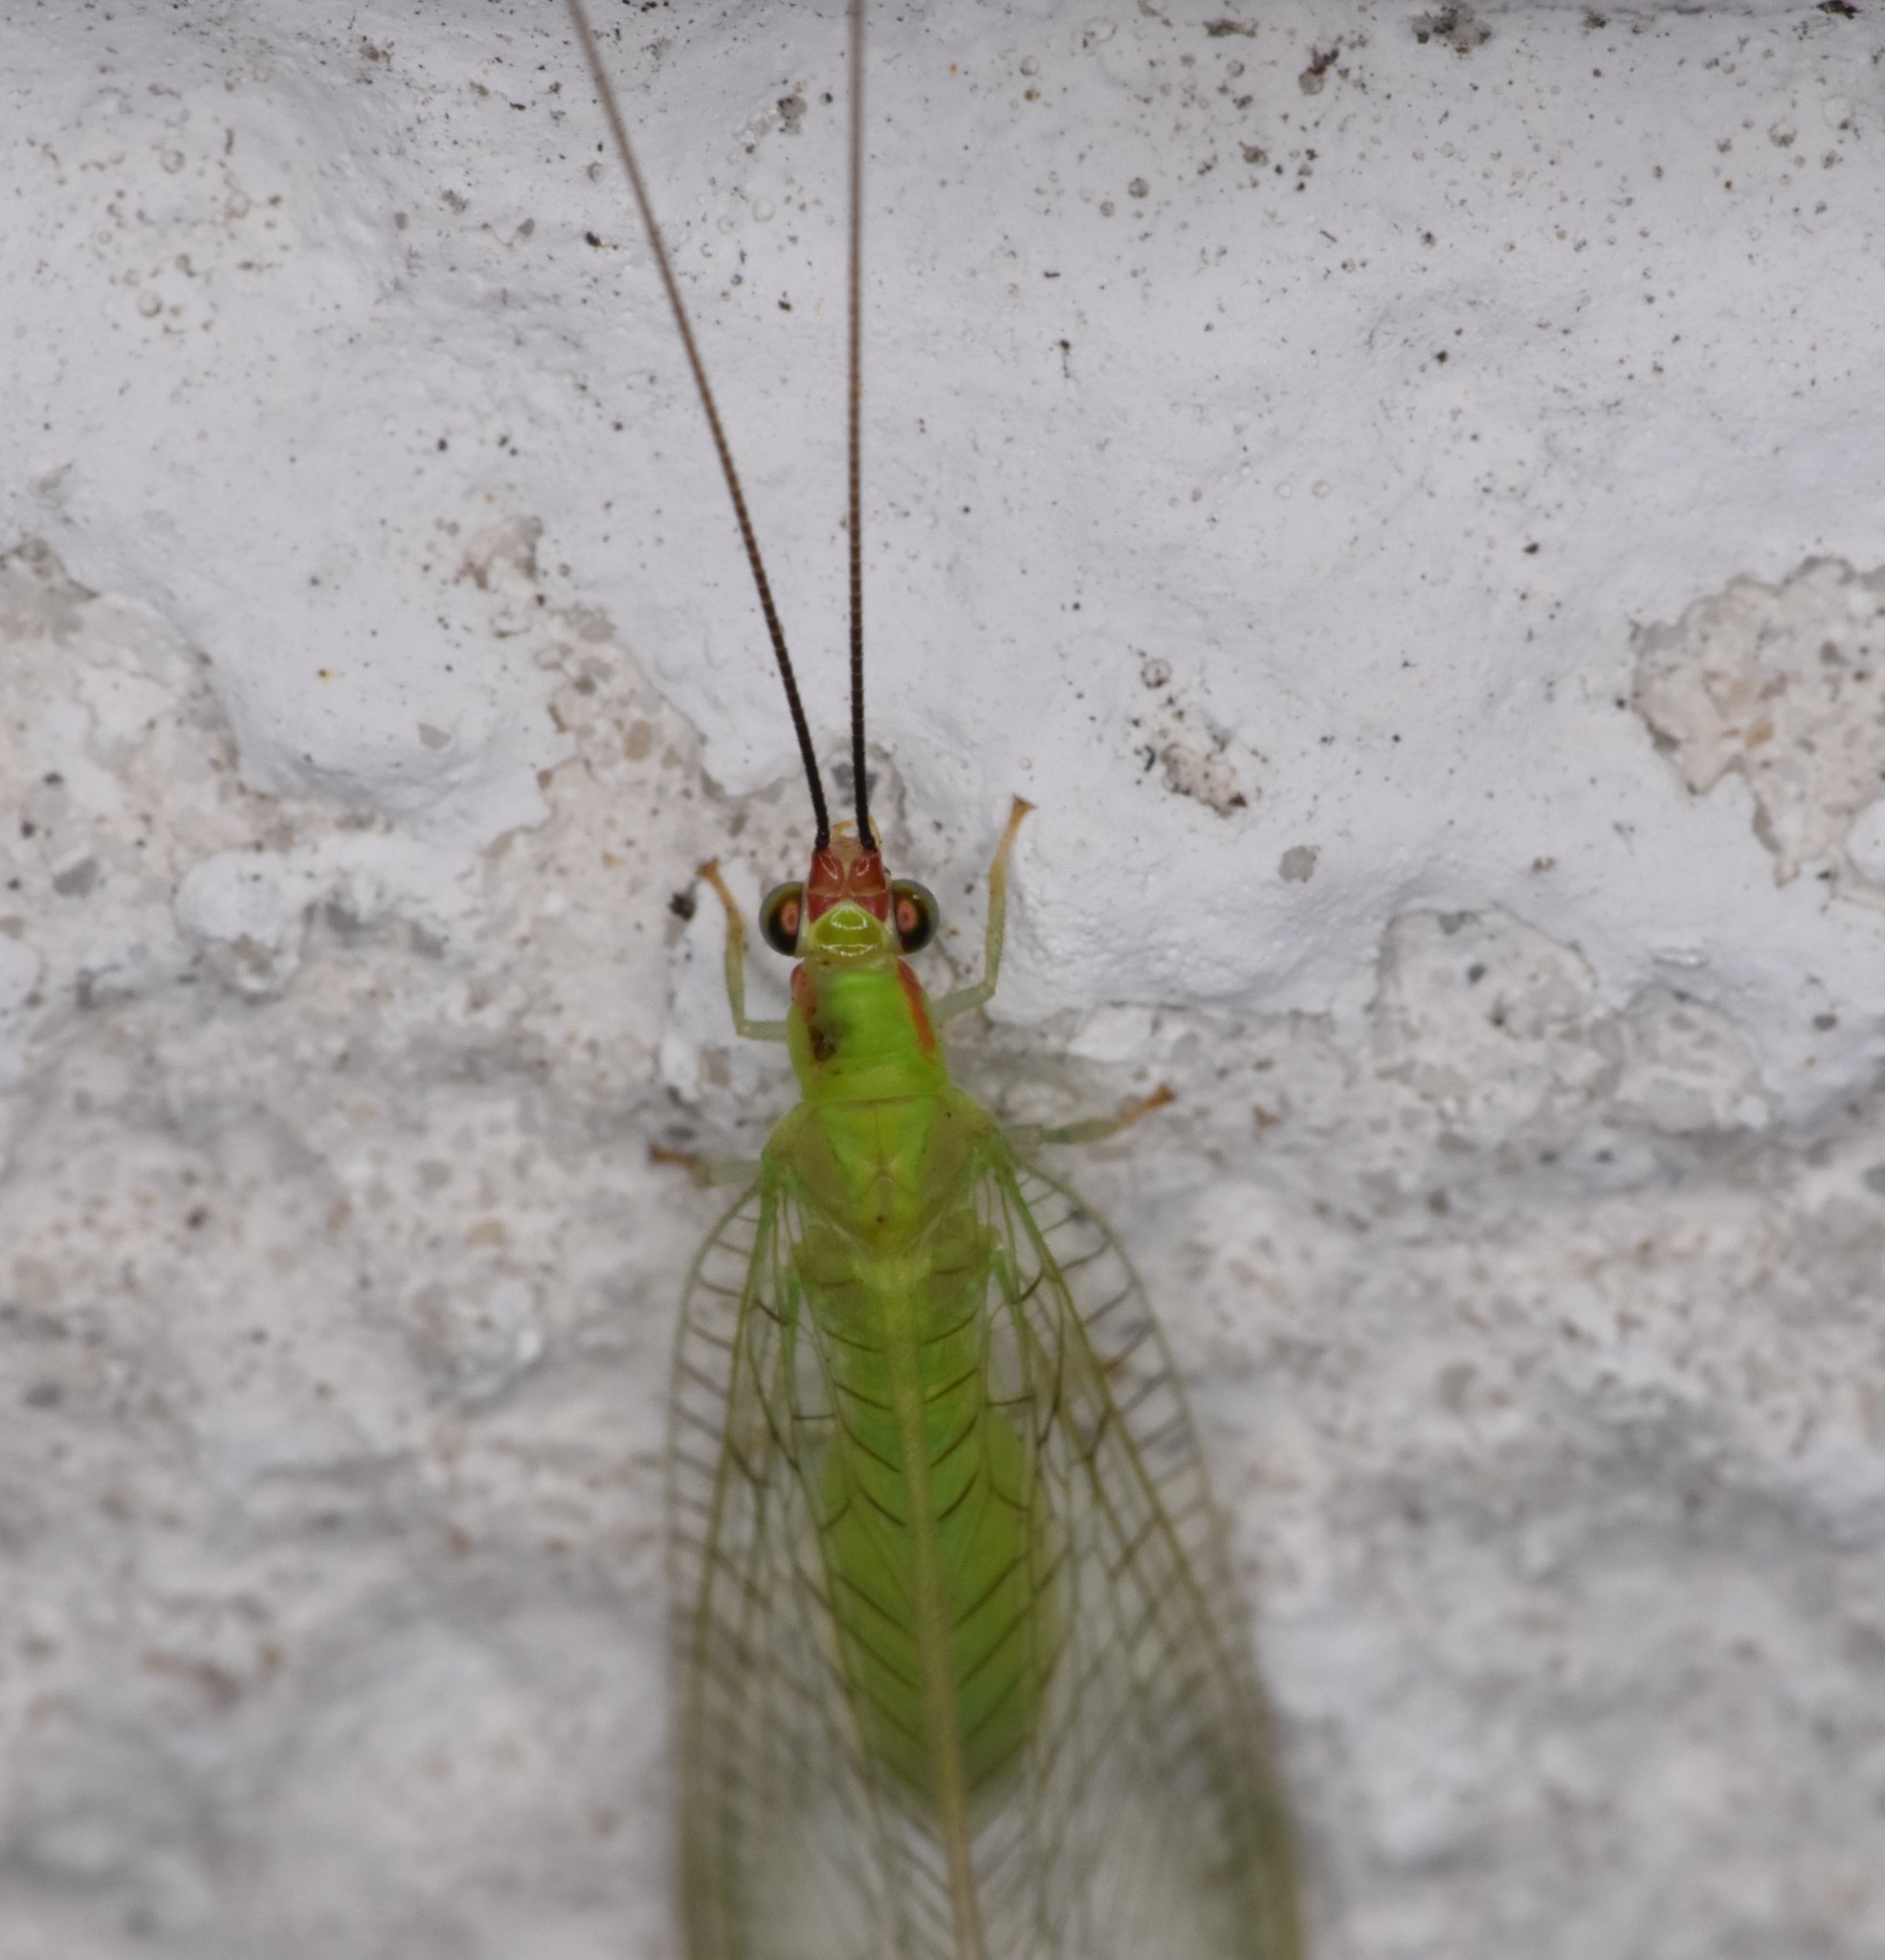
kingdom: Animalia
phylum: Arthropoda
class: Insecta
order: Neuroptera
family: Chrysopidae
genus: Ceraeochrysa
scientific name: Ceraeochrysa smithi
